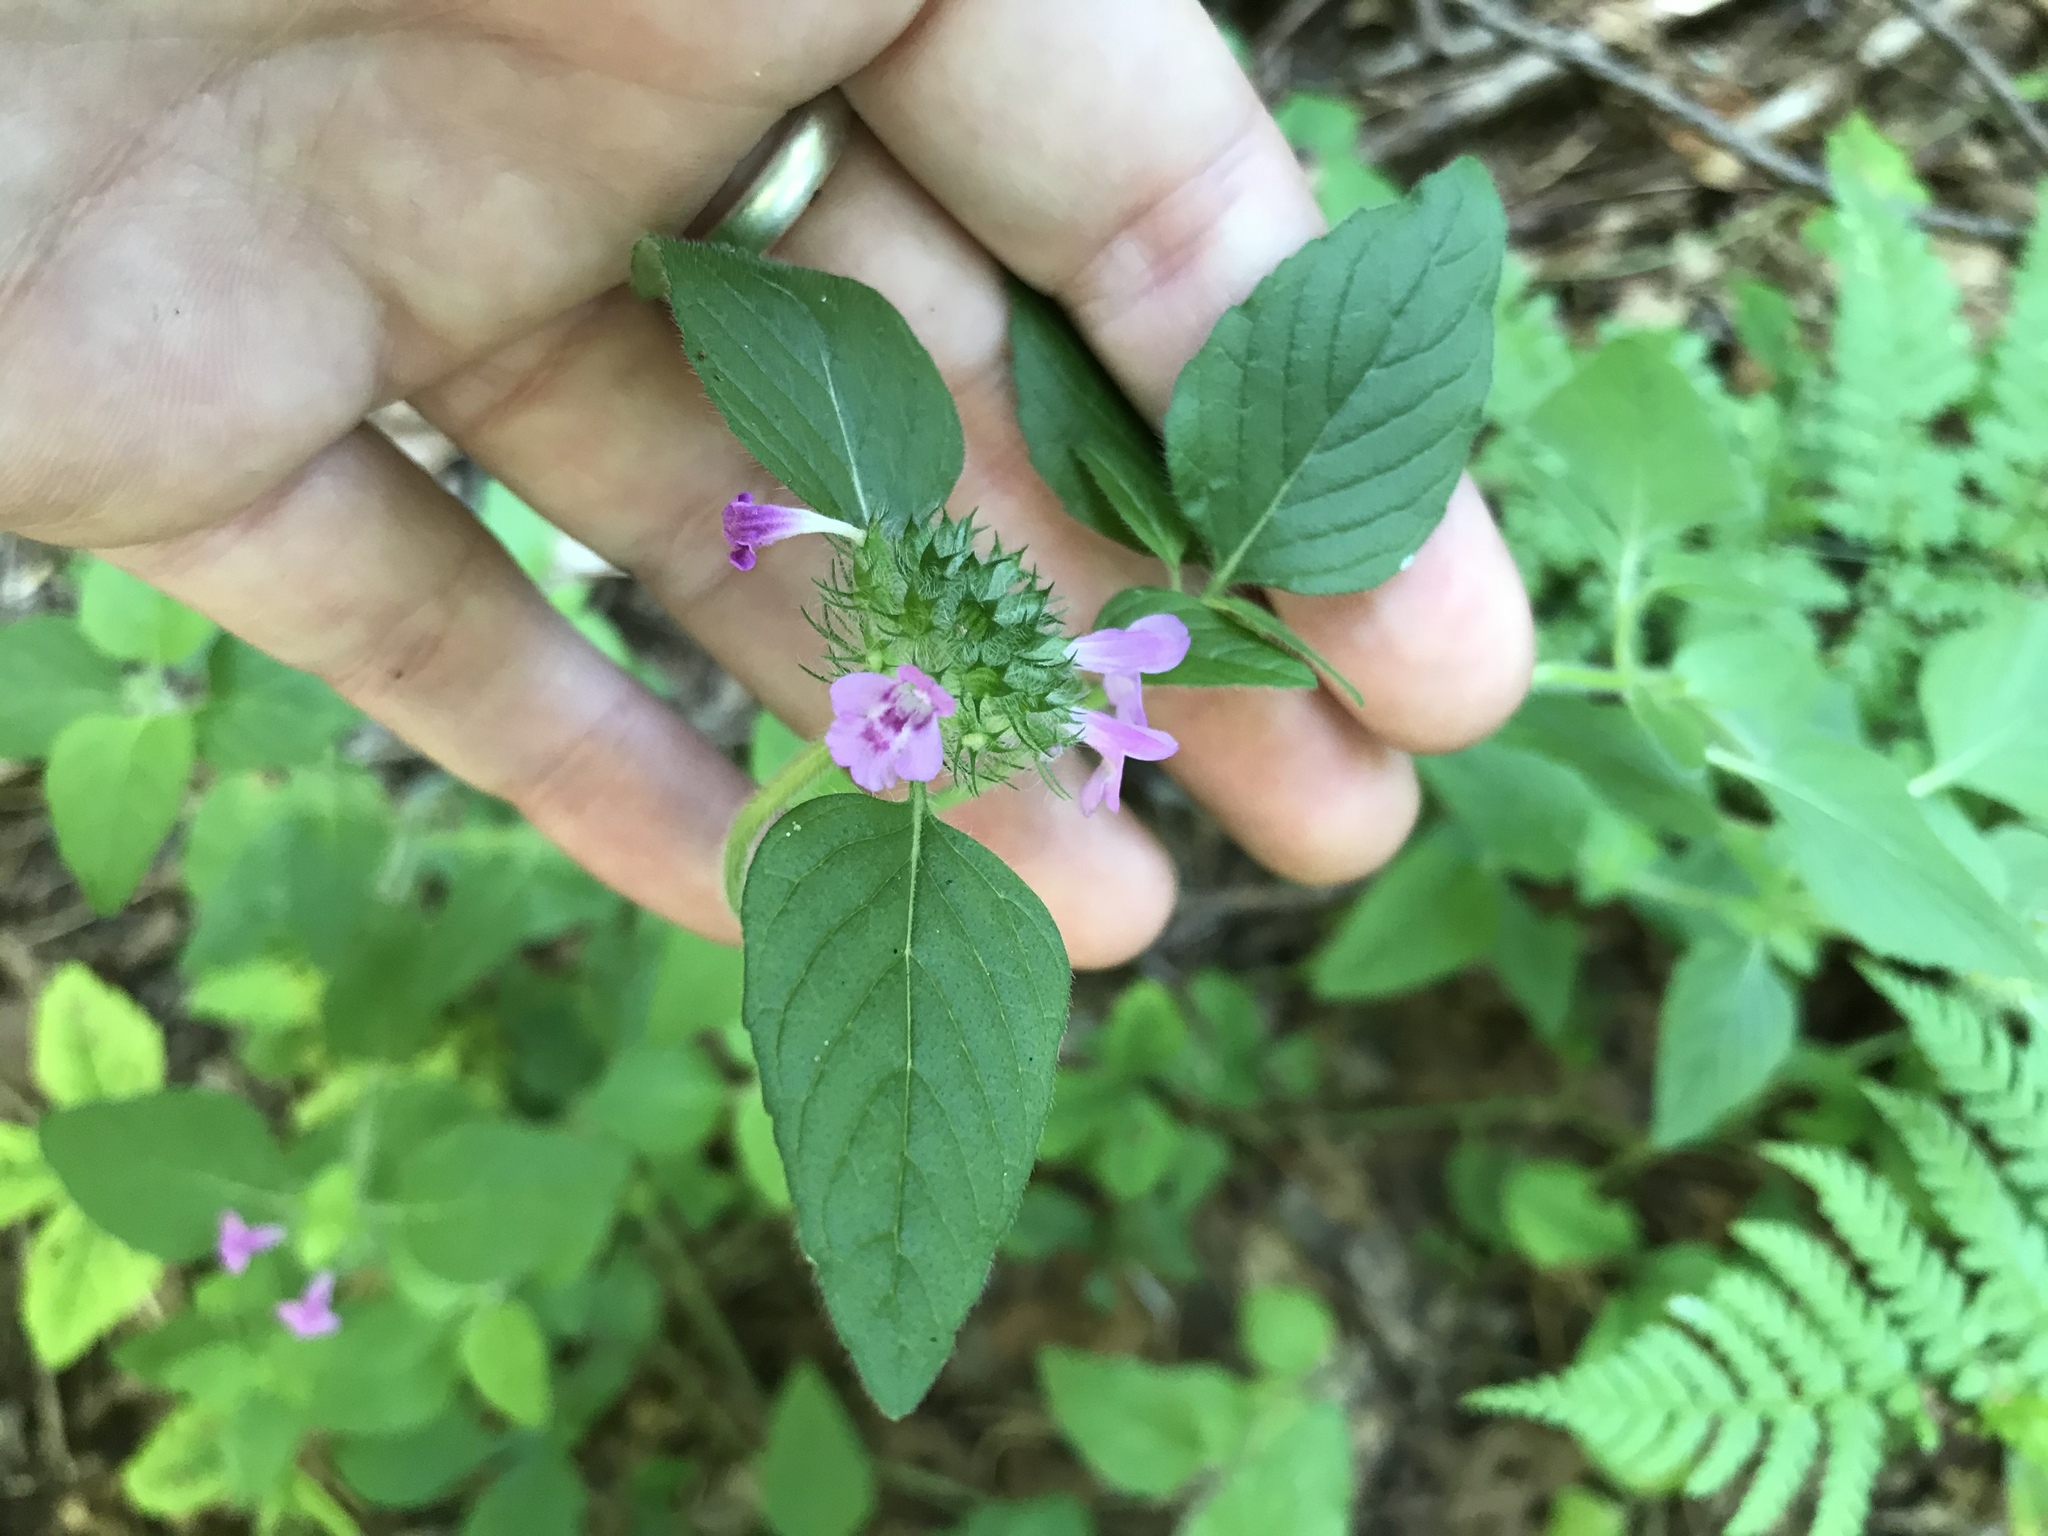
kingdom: Plantae
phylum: Tracheophyta
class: Magnoliopsida
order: Lamiales
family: Lamiaceae
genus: Clinopodium
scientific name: Clinopodium vulgare
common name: Wild basil
